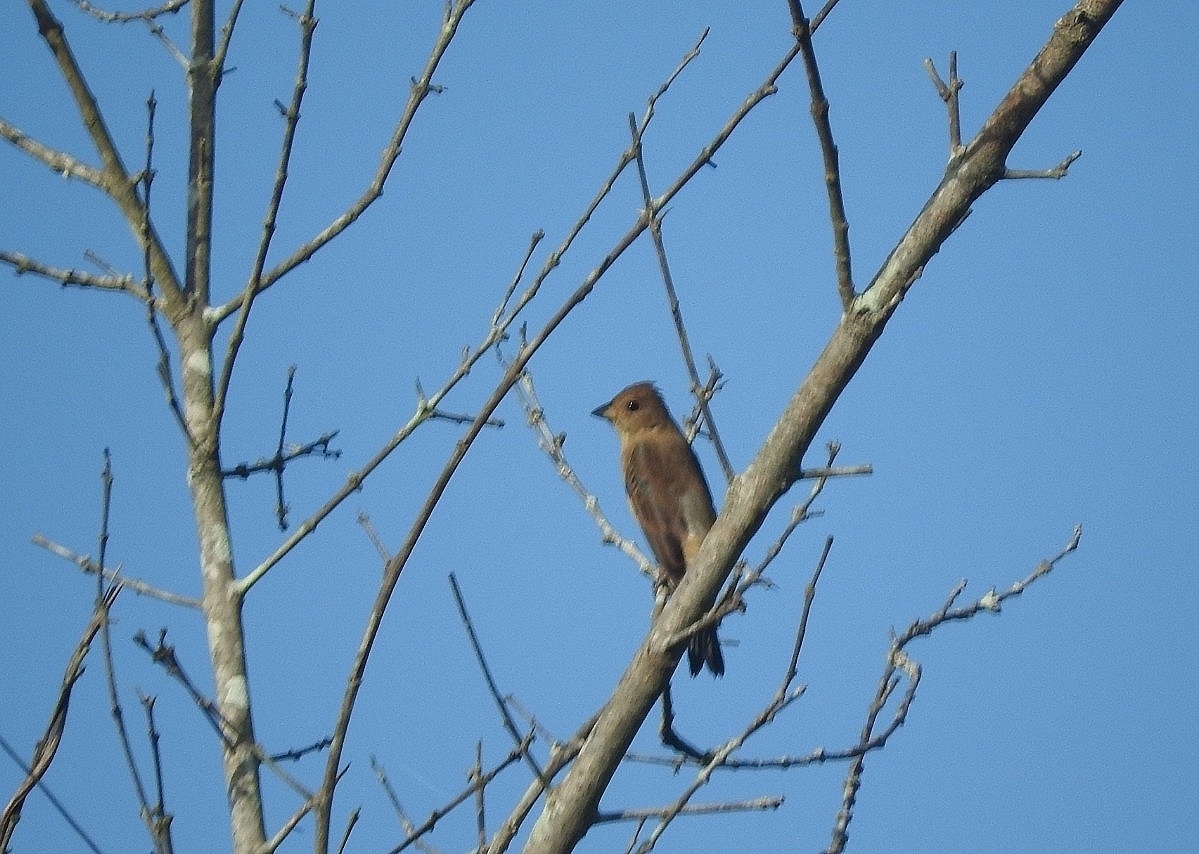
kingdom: Animalia
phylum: Chordata
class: Aves
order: Passeriformes
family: Cardinalidae
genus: Passerina
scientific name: Passerina cyanea
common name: Indigo bunting
